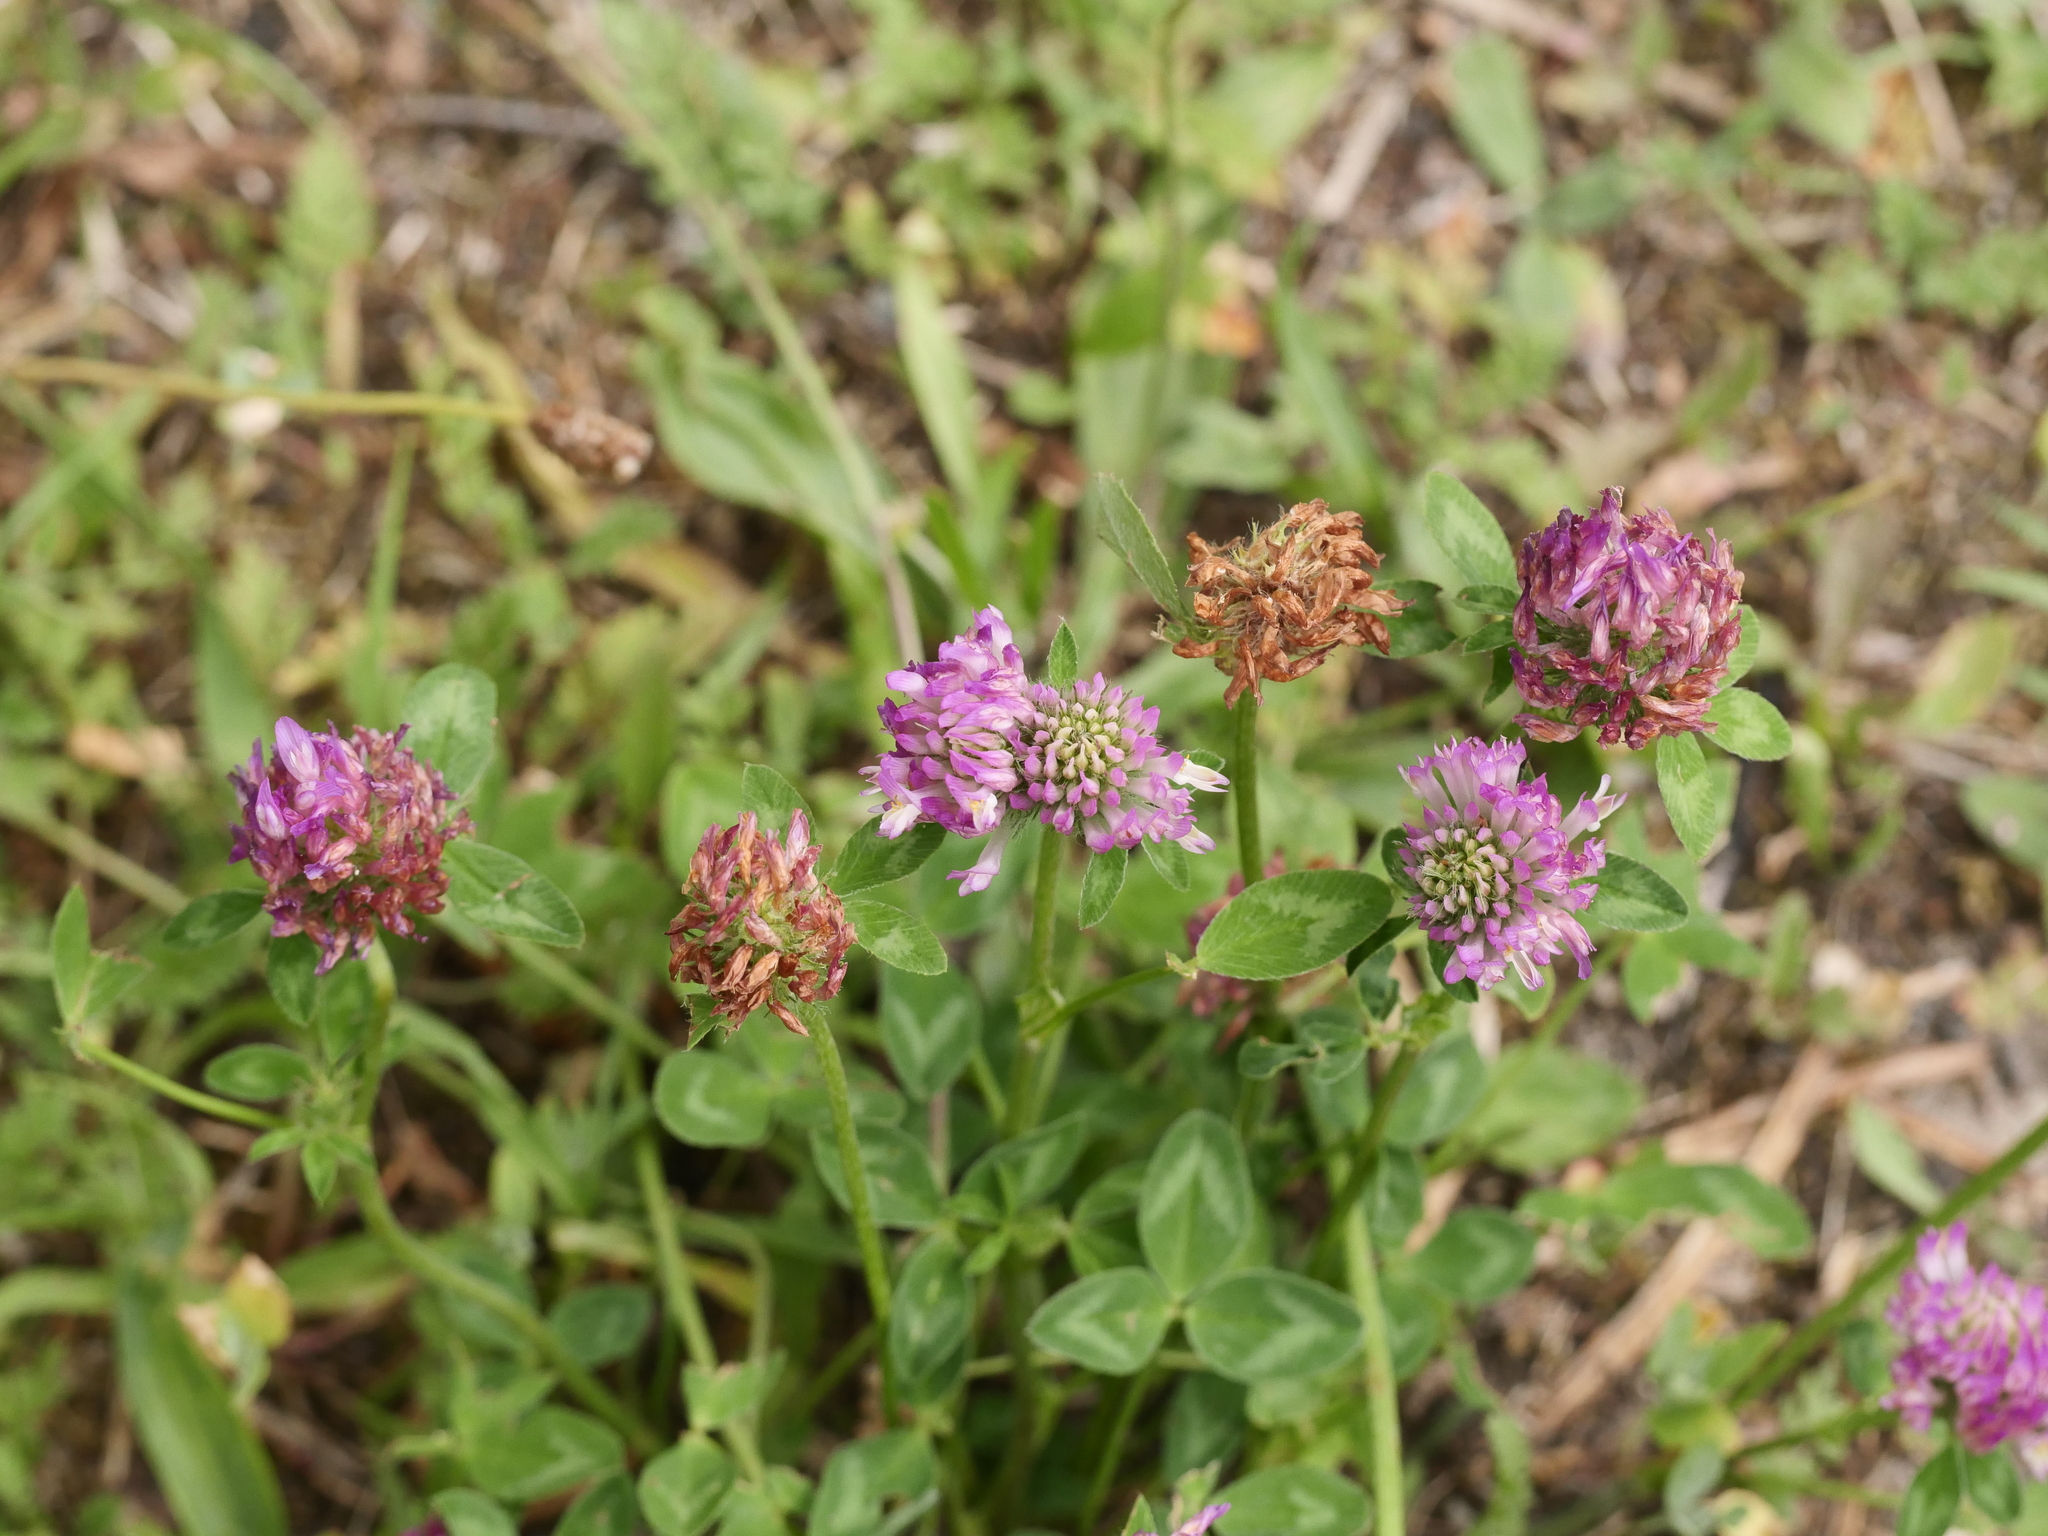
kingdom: Plantae
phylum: Tracheophyta
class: Magnoliopsida
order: Fabales
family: Fabaceae
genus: Trifolium
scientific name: Trifolium pratense
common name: Red clover
